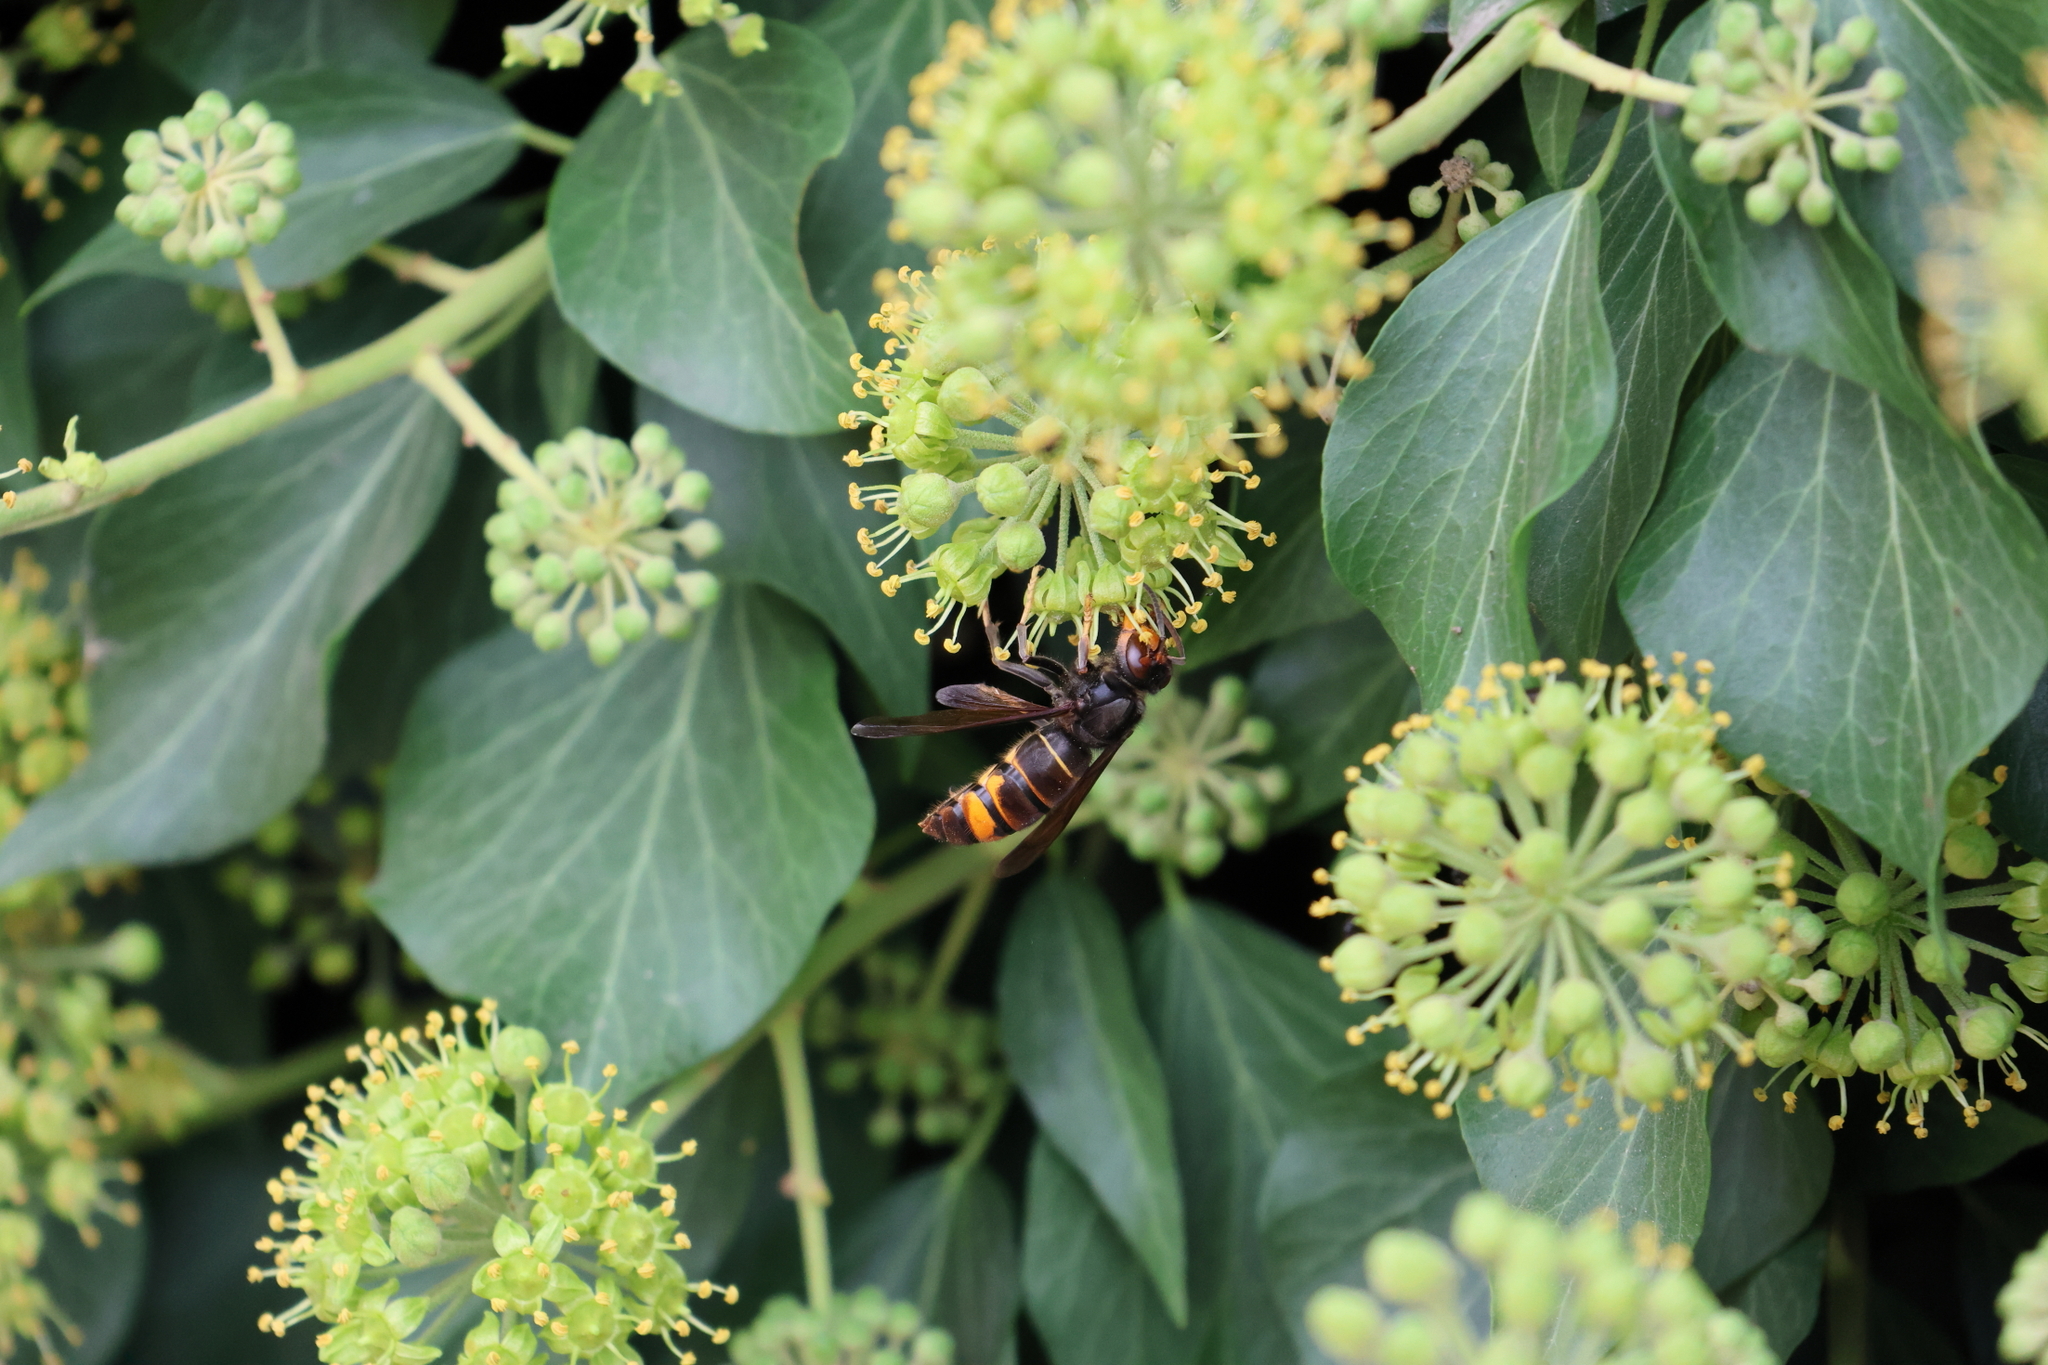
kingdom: Animalia
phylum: Arthropoda
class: Insecta
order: Hymenoptera
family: Vespidae
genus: Vespa
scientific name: Vespa velutina
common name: Asian hornet
